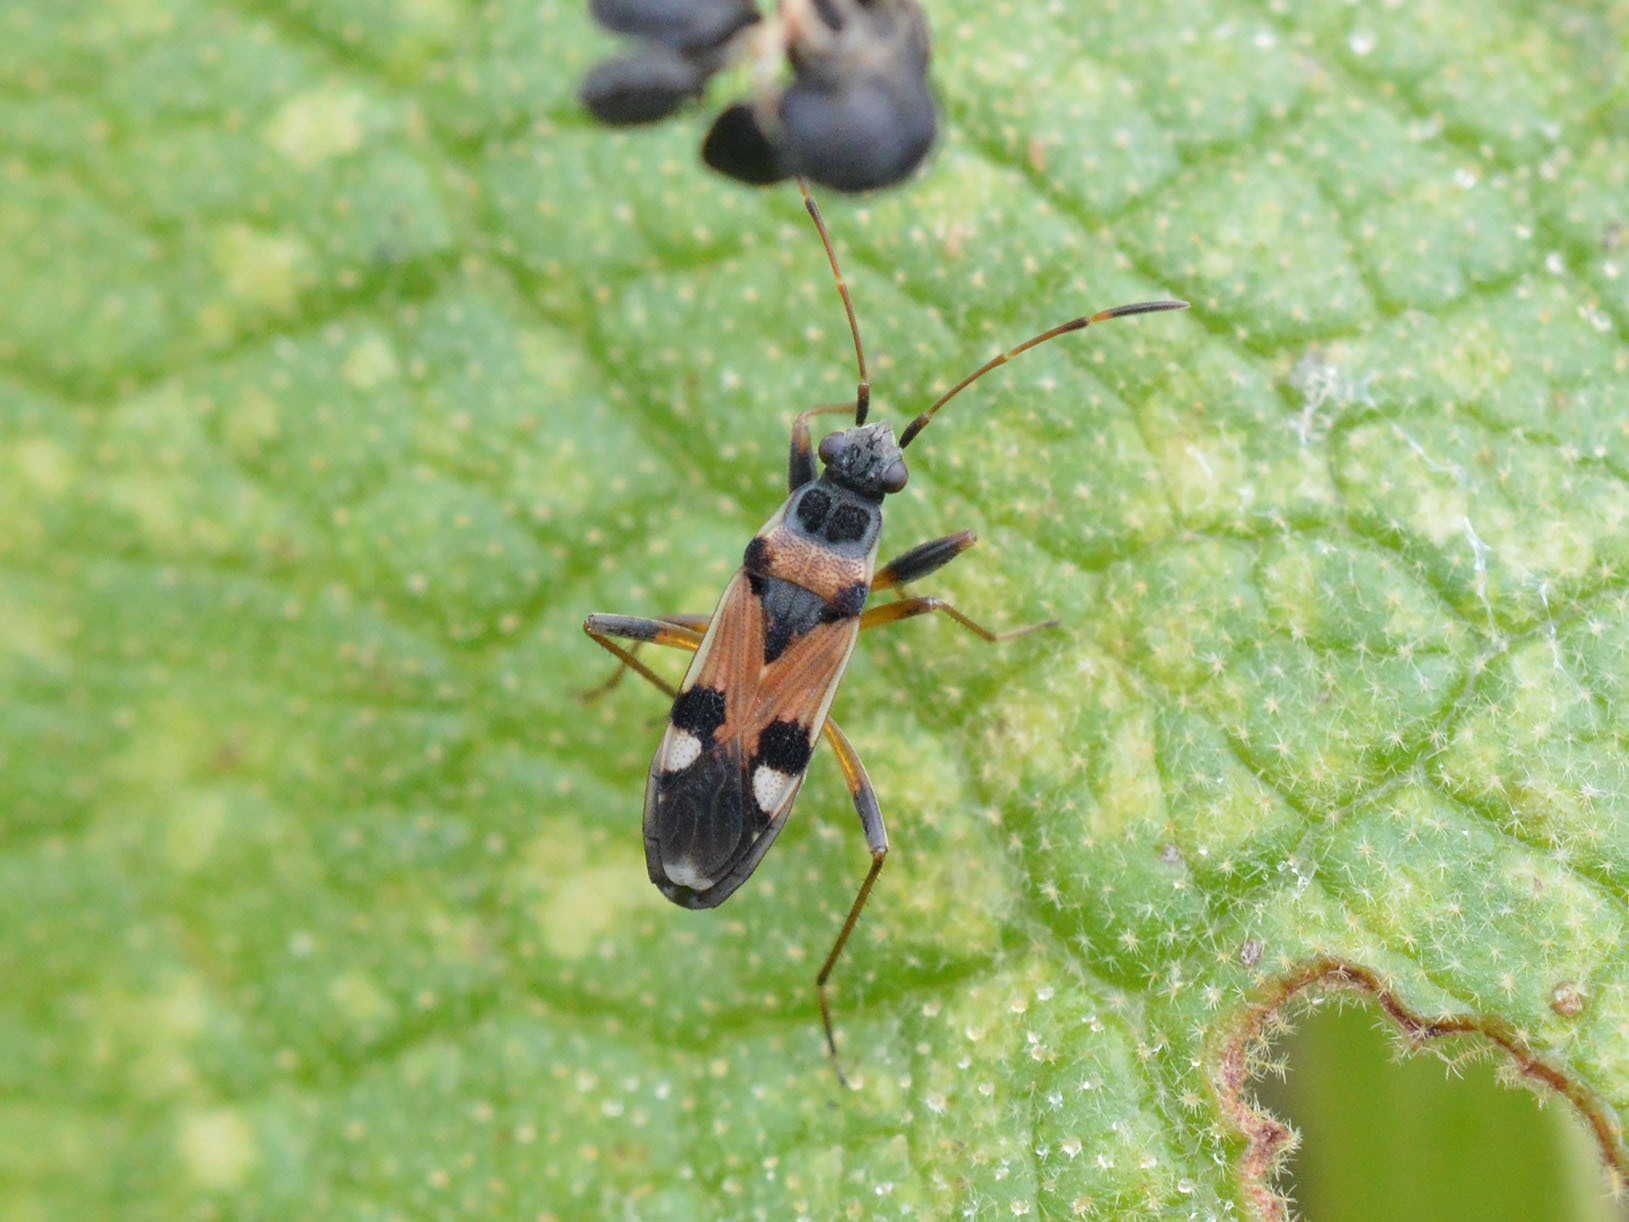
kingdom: Animalia
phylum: Arthropoda
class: Insecta
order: Hemiptera
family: Rhyparochromidae
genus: Beosus
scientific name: Beosus quadripunctatus
